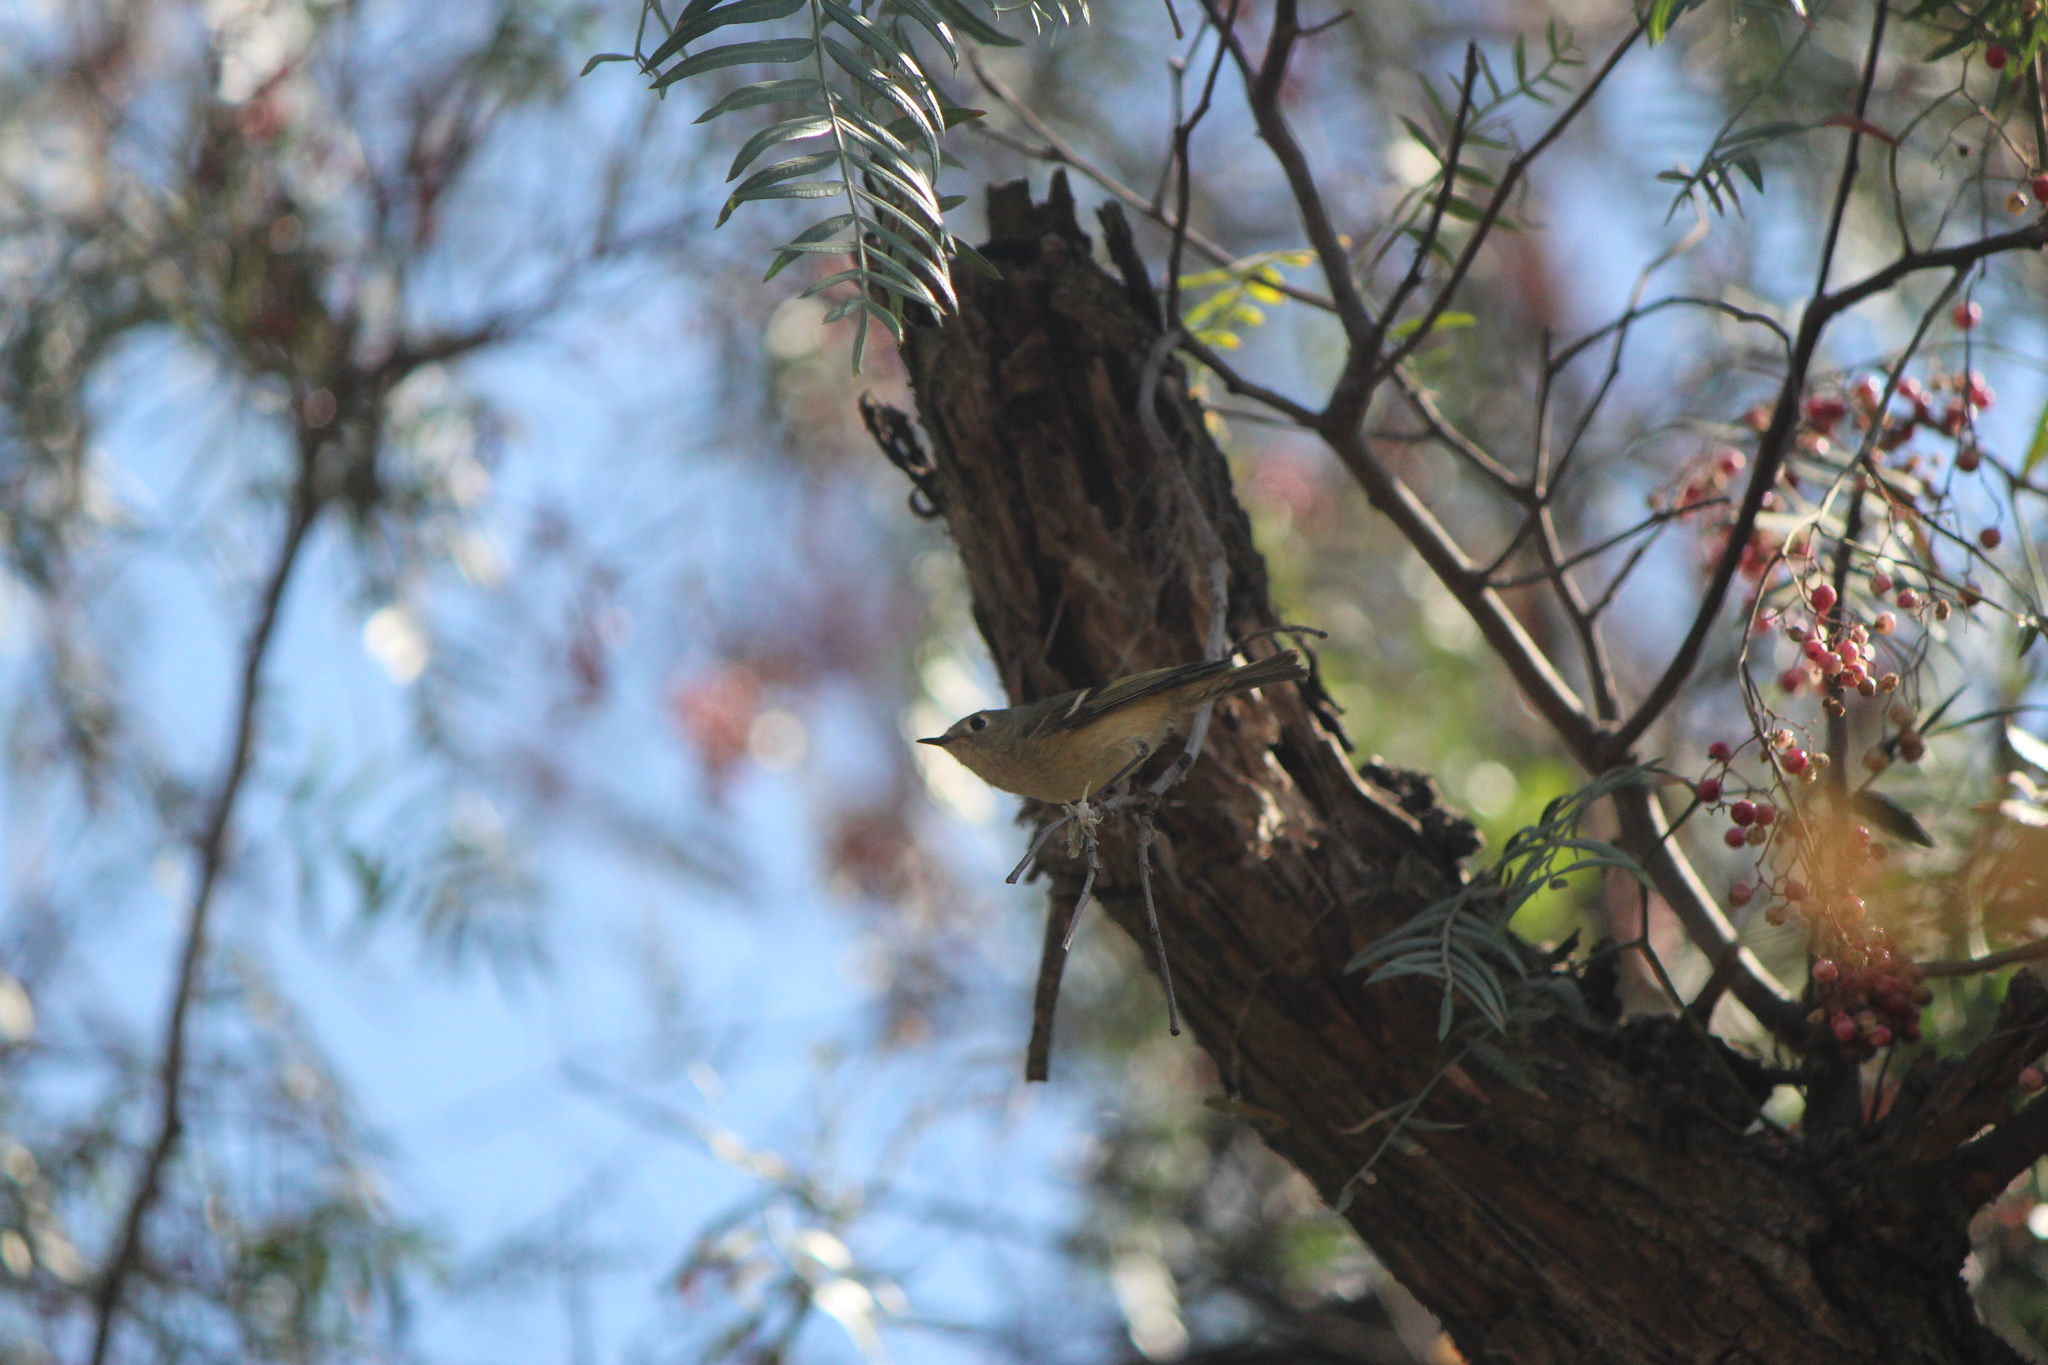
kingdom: Animalia
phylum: Chordata
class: Aves
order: Passeriformes
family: Regulidae
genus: Regulus
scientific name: Regulus calendula
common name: Ruby-crowned kinglet
